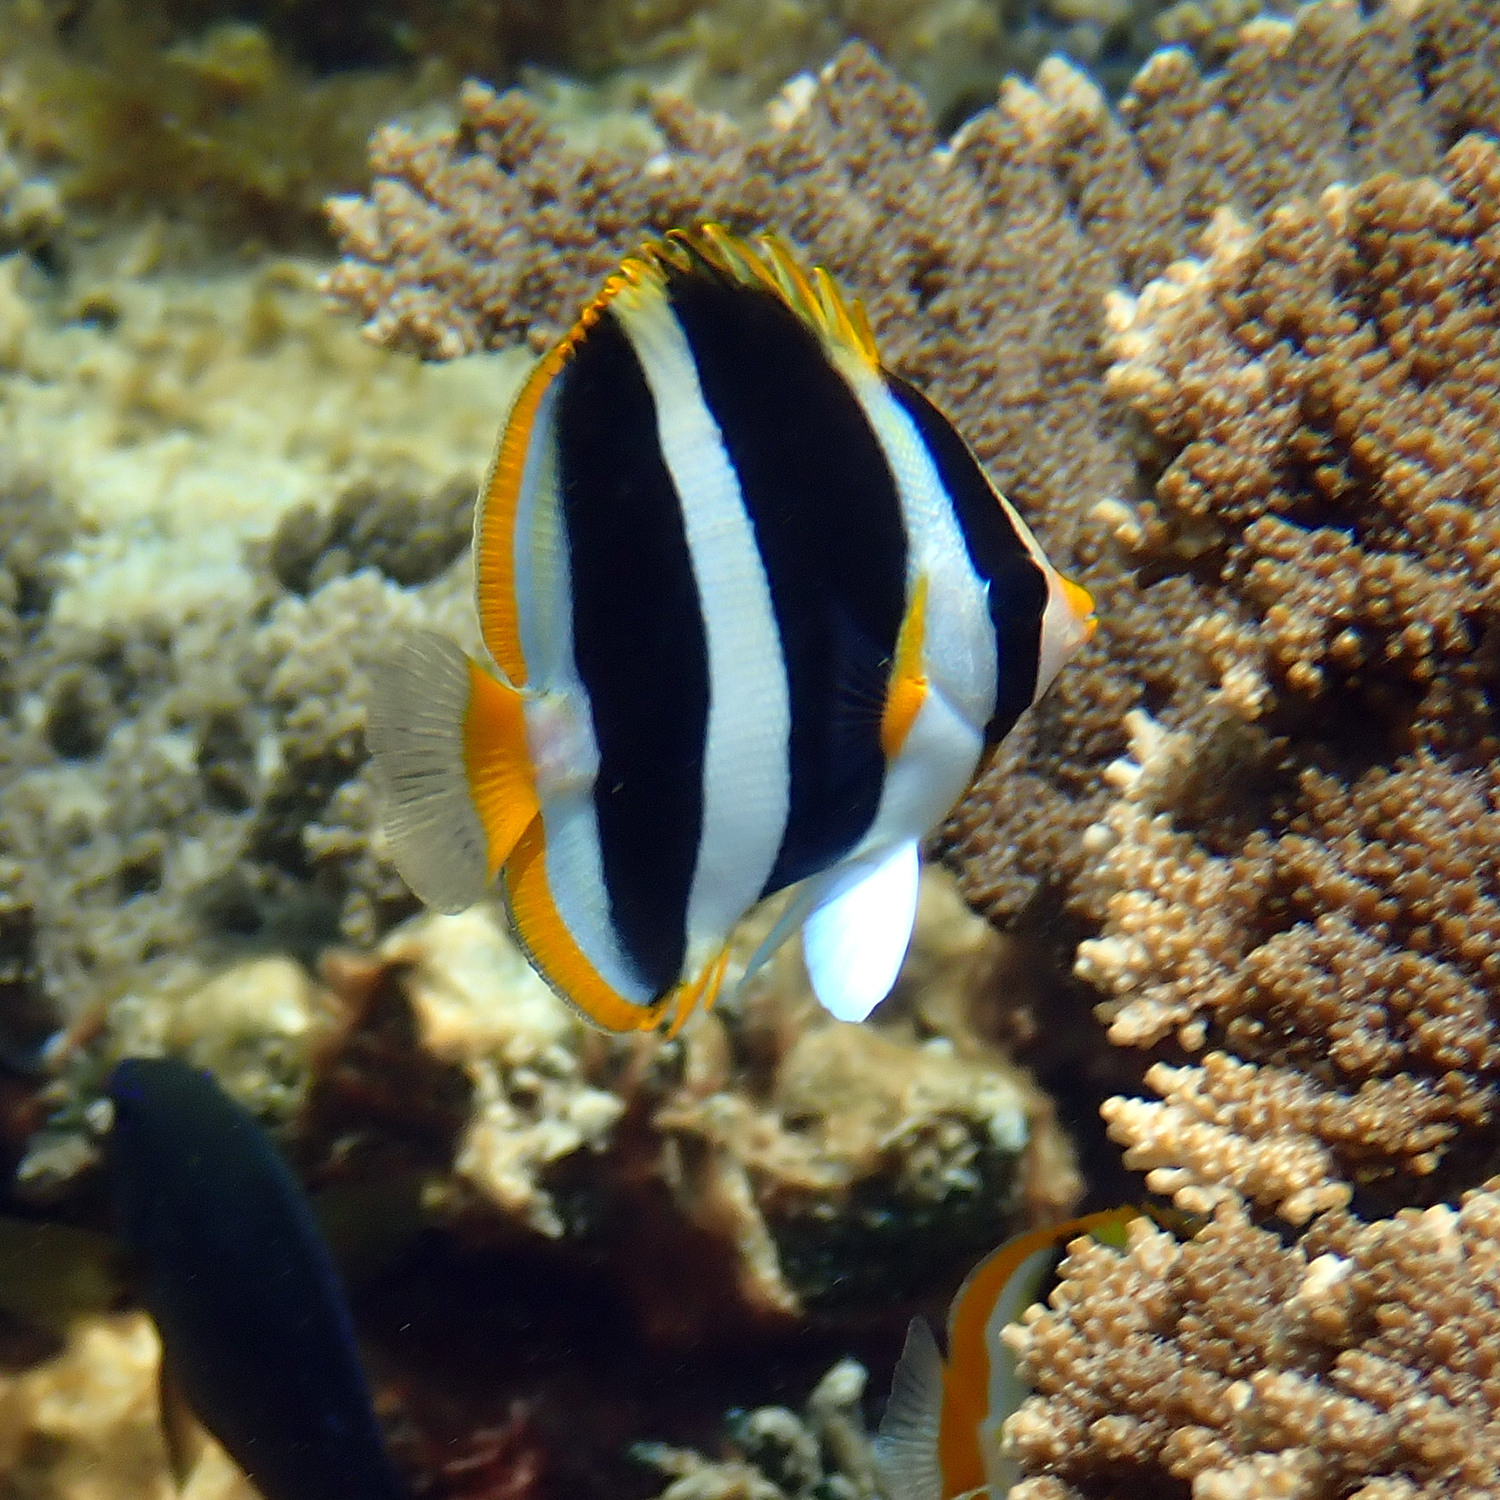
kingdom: Animalia
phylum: Chordata
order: Perciformes
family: Chaetodontidae
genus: Chaetodon
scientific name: Chaetodon tricinctus
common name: Three-striped butterflyfish
